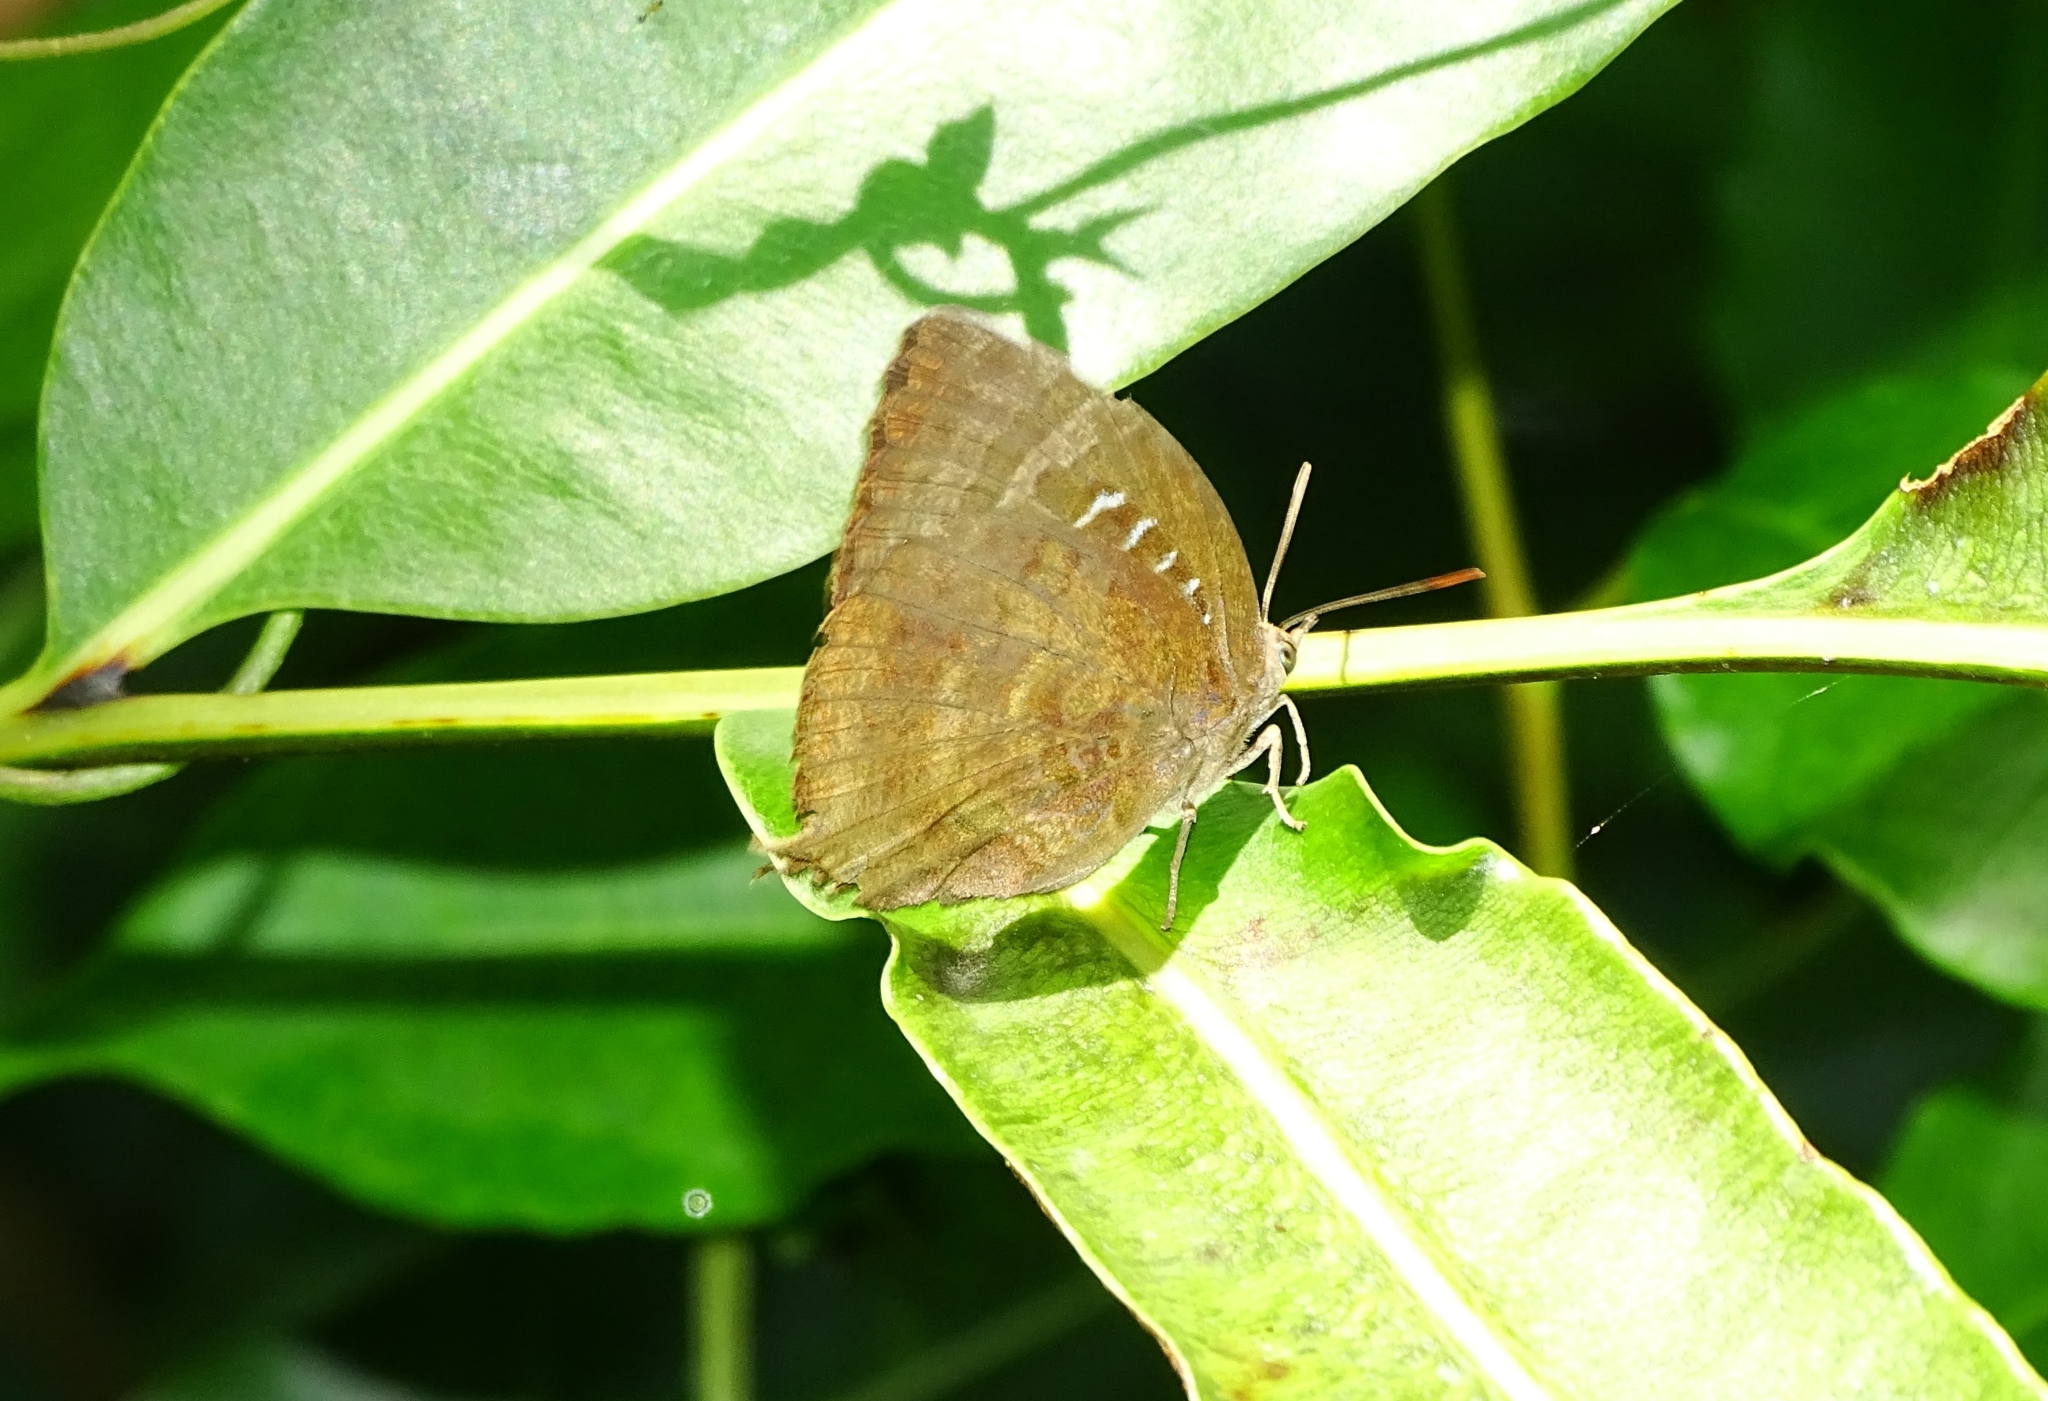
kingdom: Animalia
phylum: Arthropoda
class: Insecta
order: Lepidoptera
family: Lycaenidae
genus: Arhopala
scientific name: Arhopala centaurus
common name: Dull oak-blue
